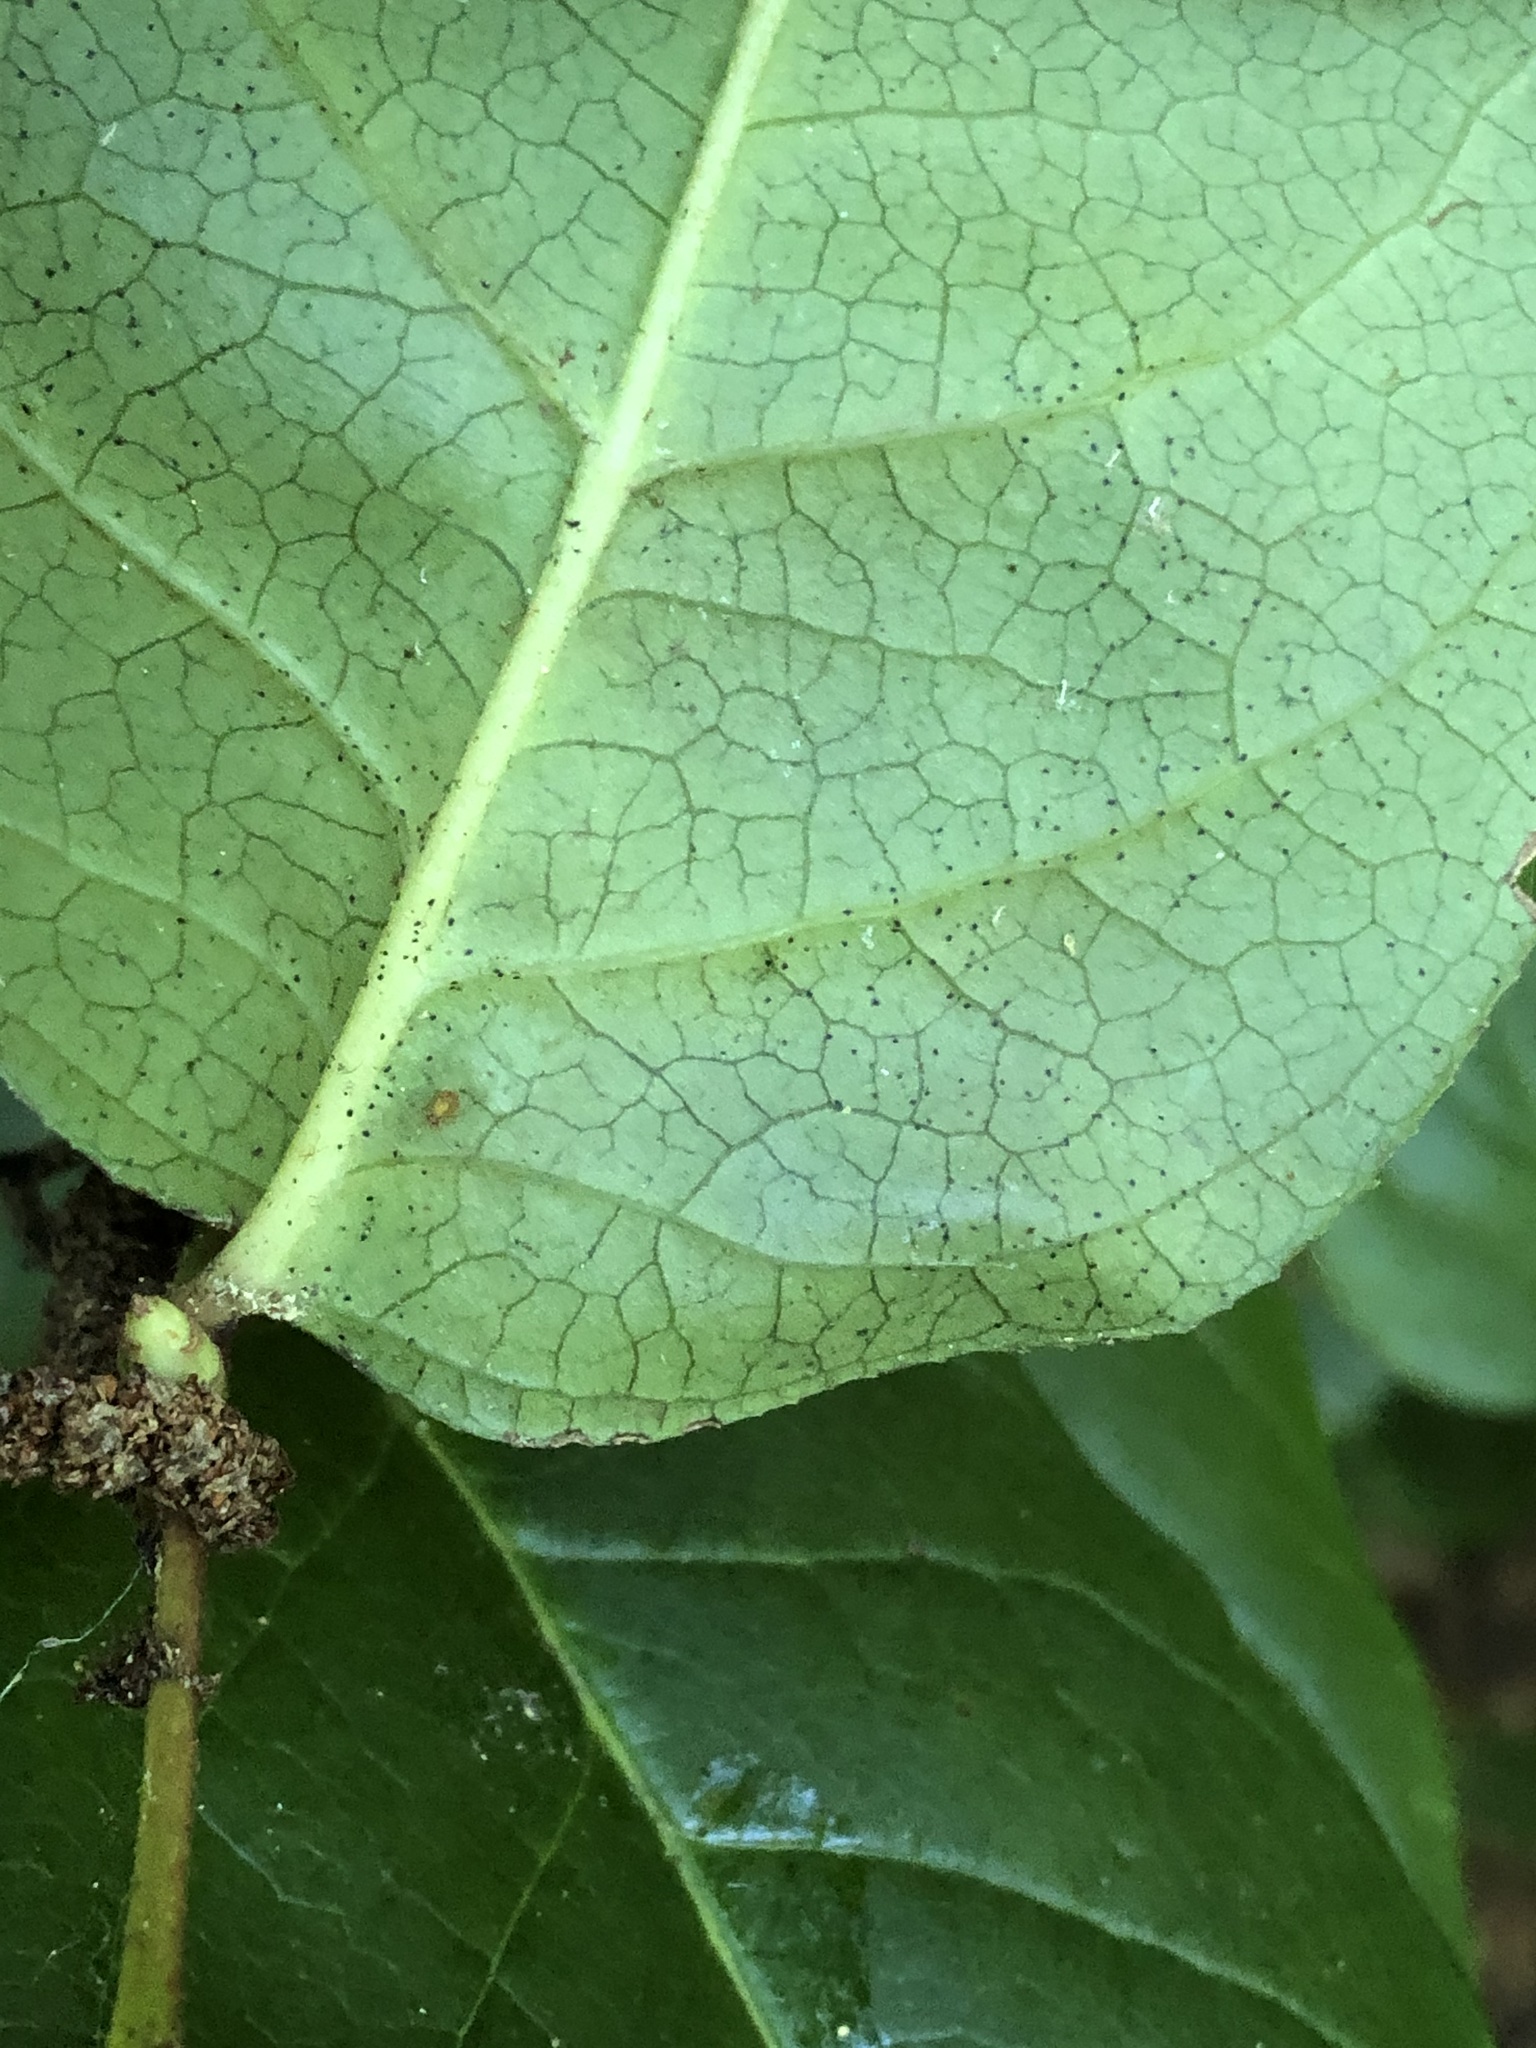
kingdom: Animalia
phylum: Arthropoda
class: Insecta
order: Lepidoptera
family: Gracillariidae
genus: Cameraria
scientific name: Cameraria gaultheriella
